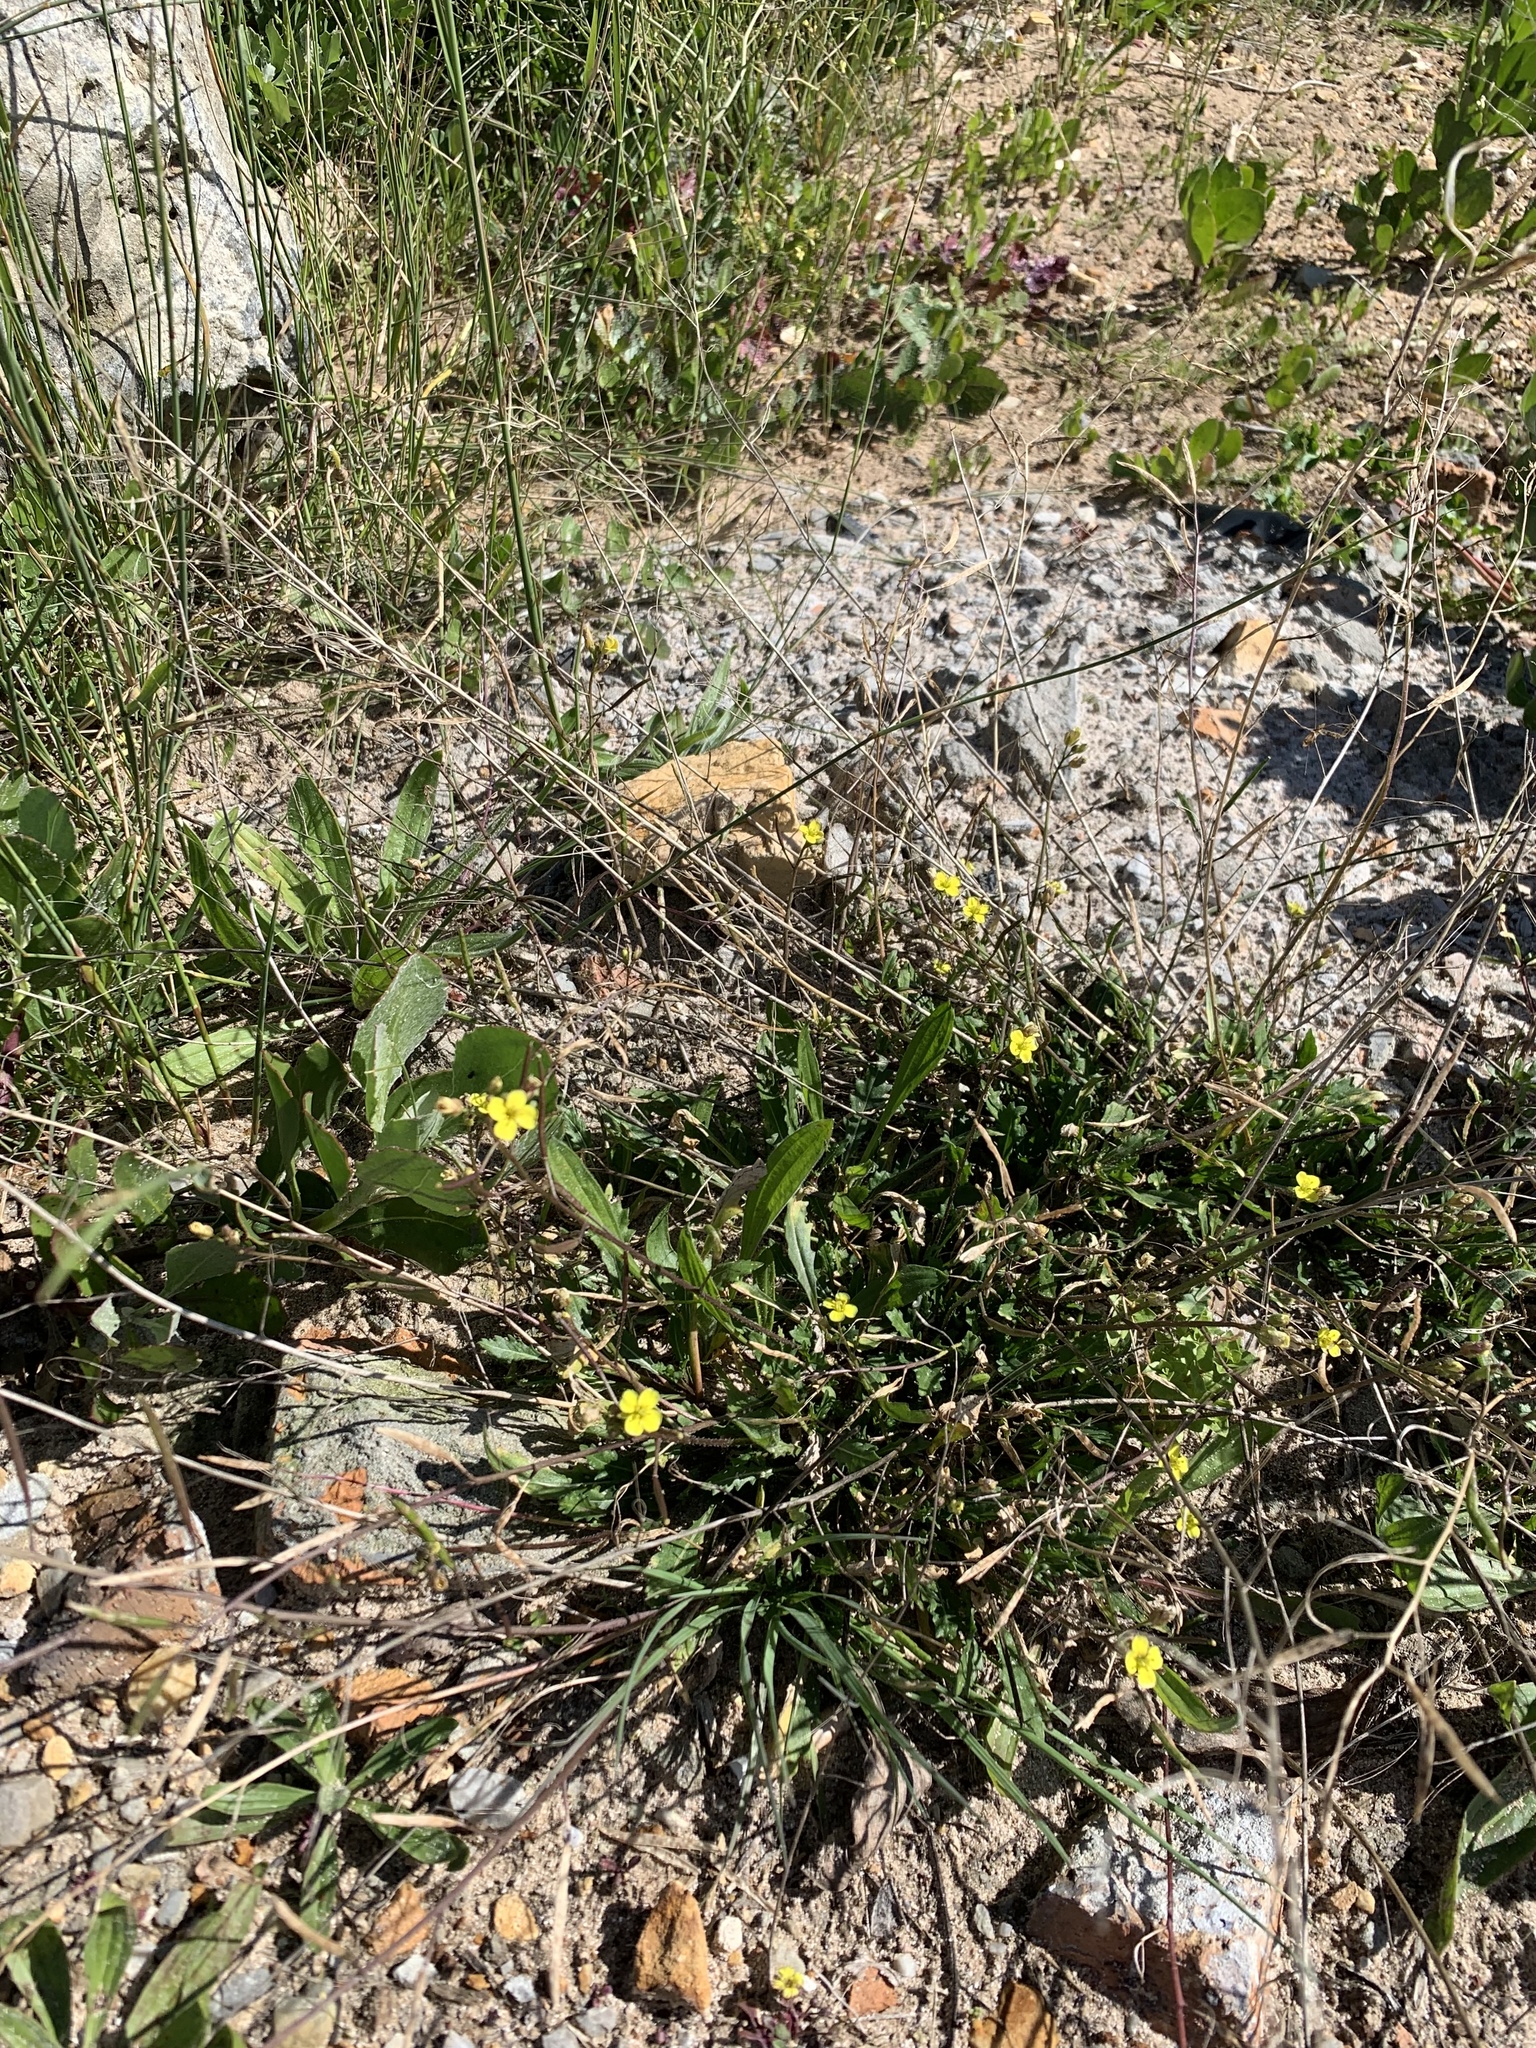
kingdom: Plantae
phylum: Tracheophyta
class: Magnoliopsida
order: Brassicales
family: Brassicaceae
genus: Diplotaxis
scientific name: Diplotaxis muralis
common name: Annual wall-rocket
